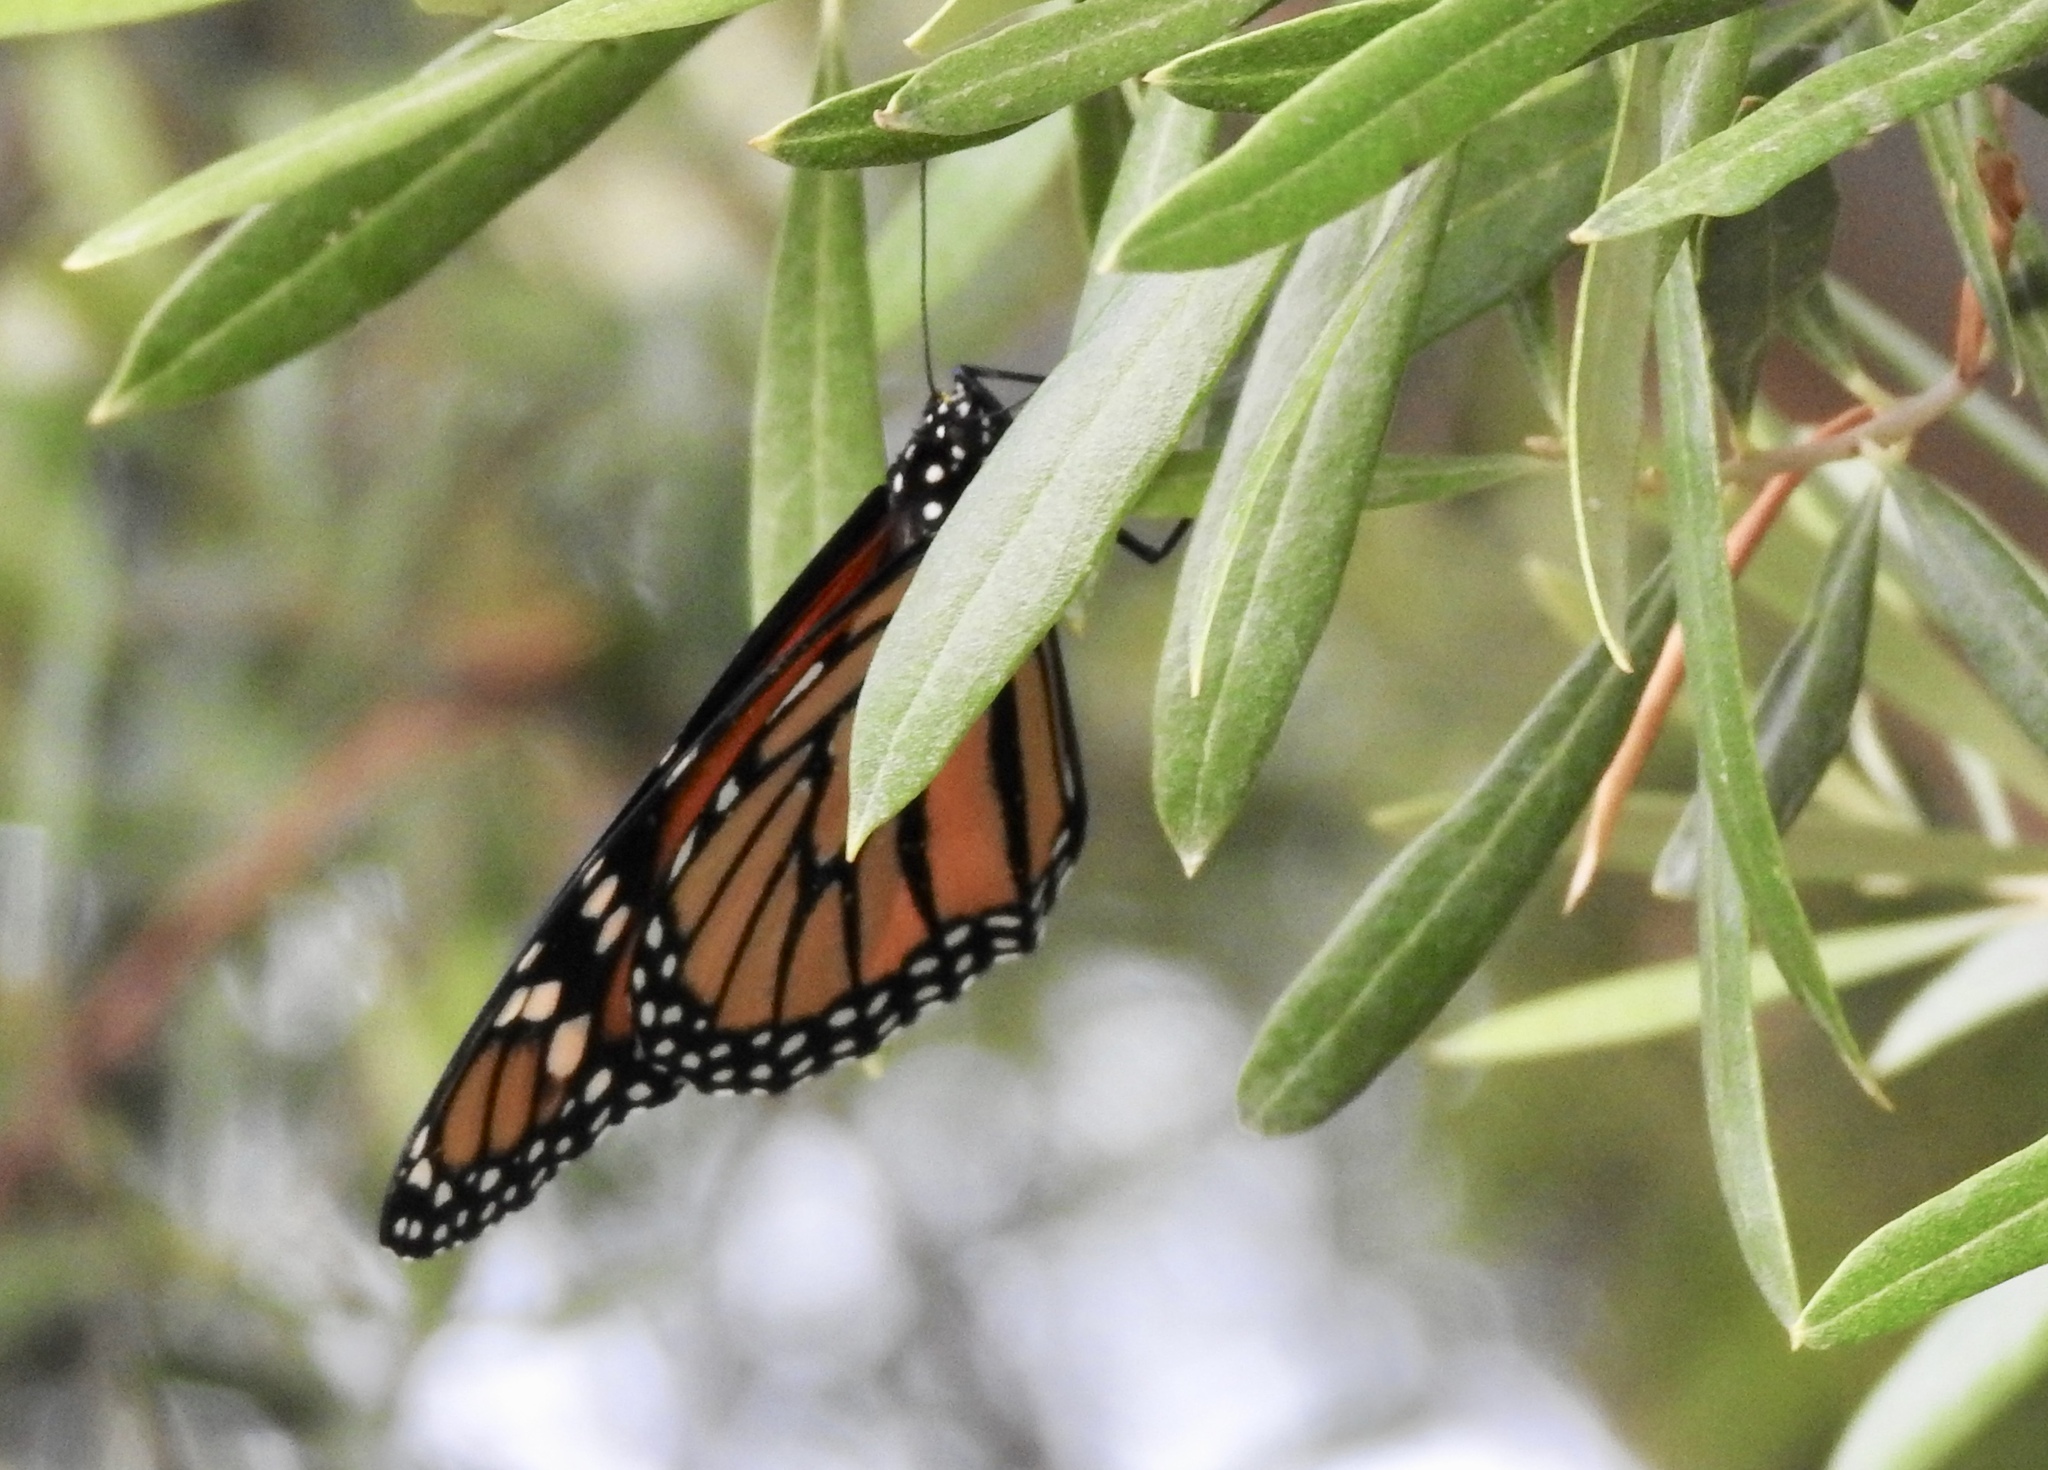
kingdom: Animalia
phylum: Arthropoda
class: Insecta
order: Lepidoptera
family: Nymphalidae
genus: Danaus
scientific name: Danaus plexippus
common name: Monarch
